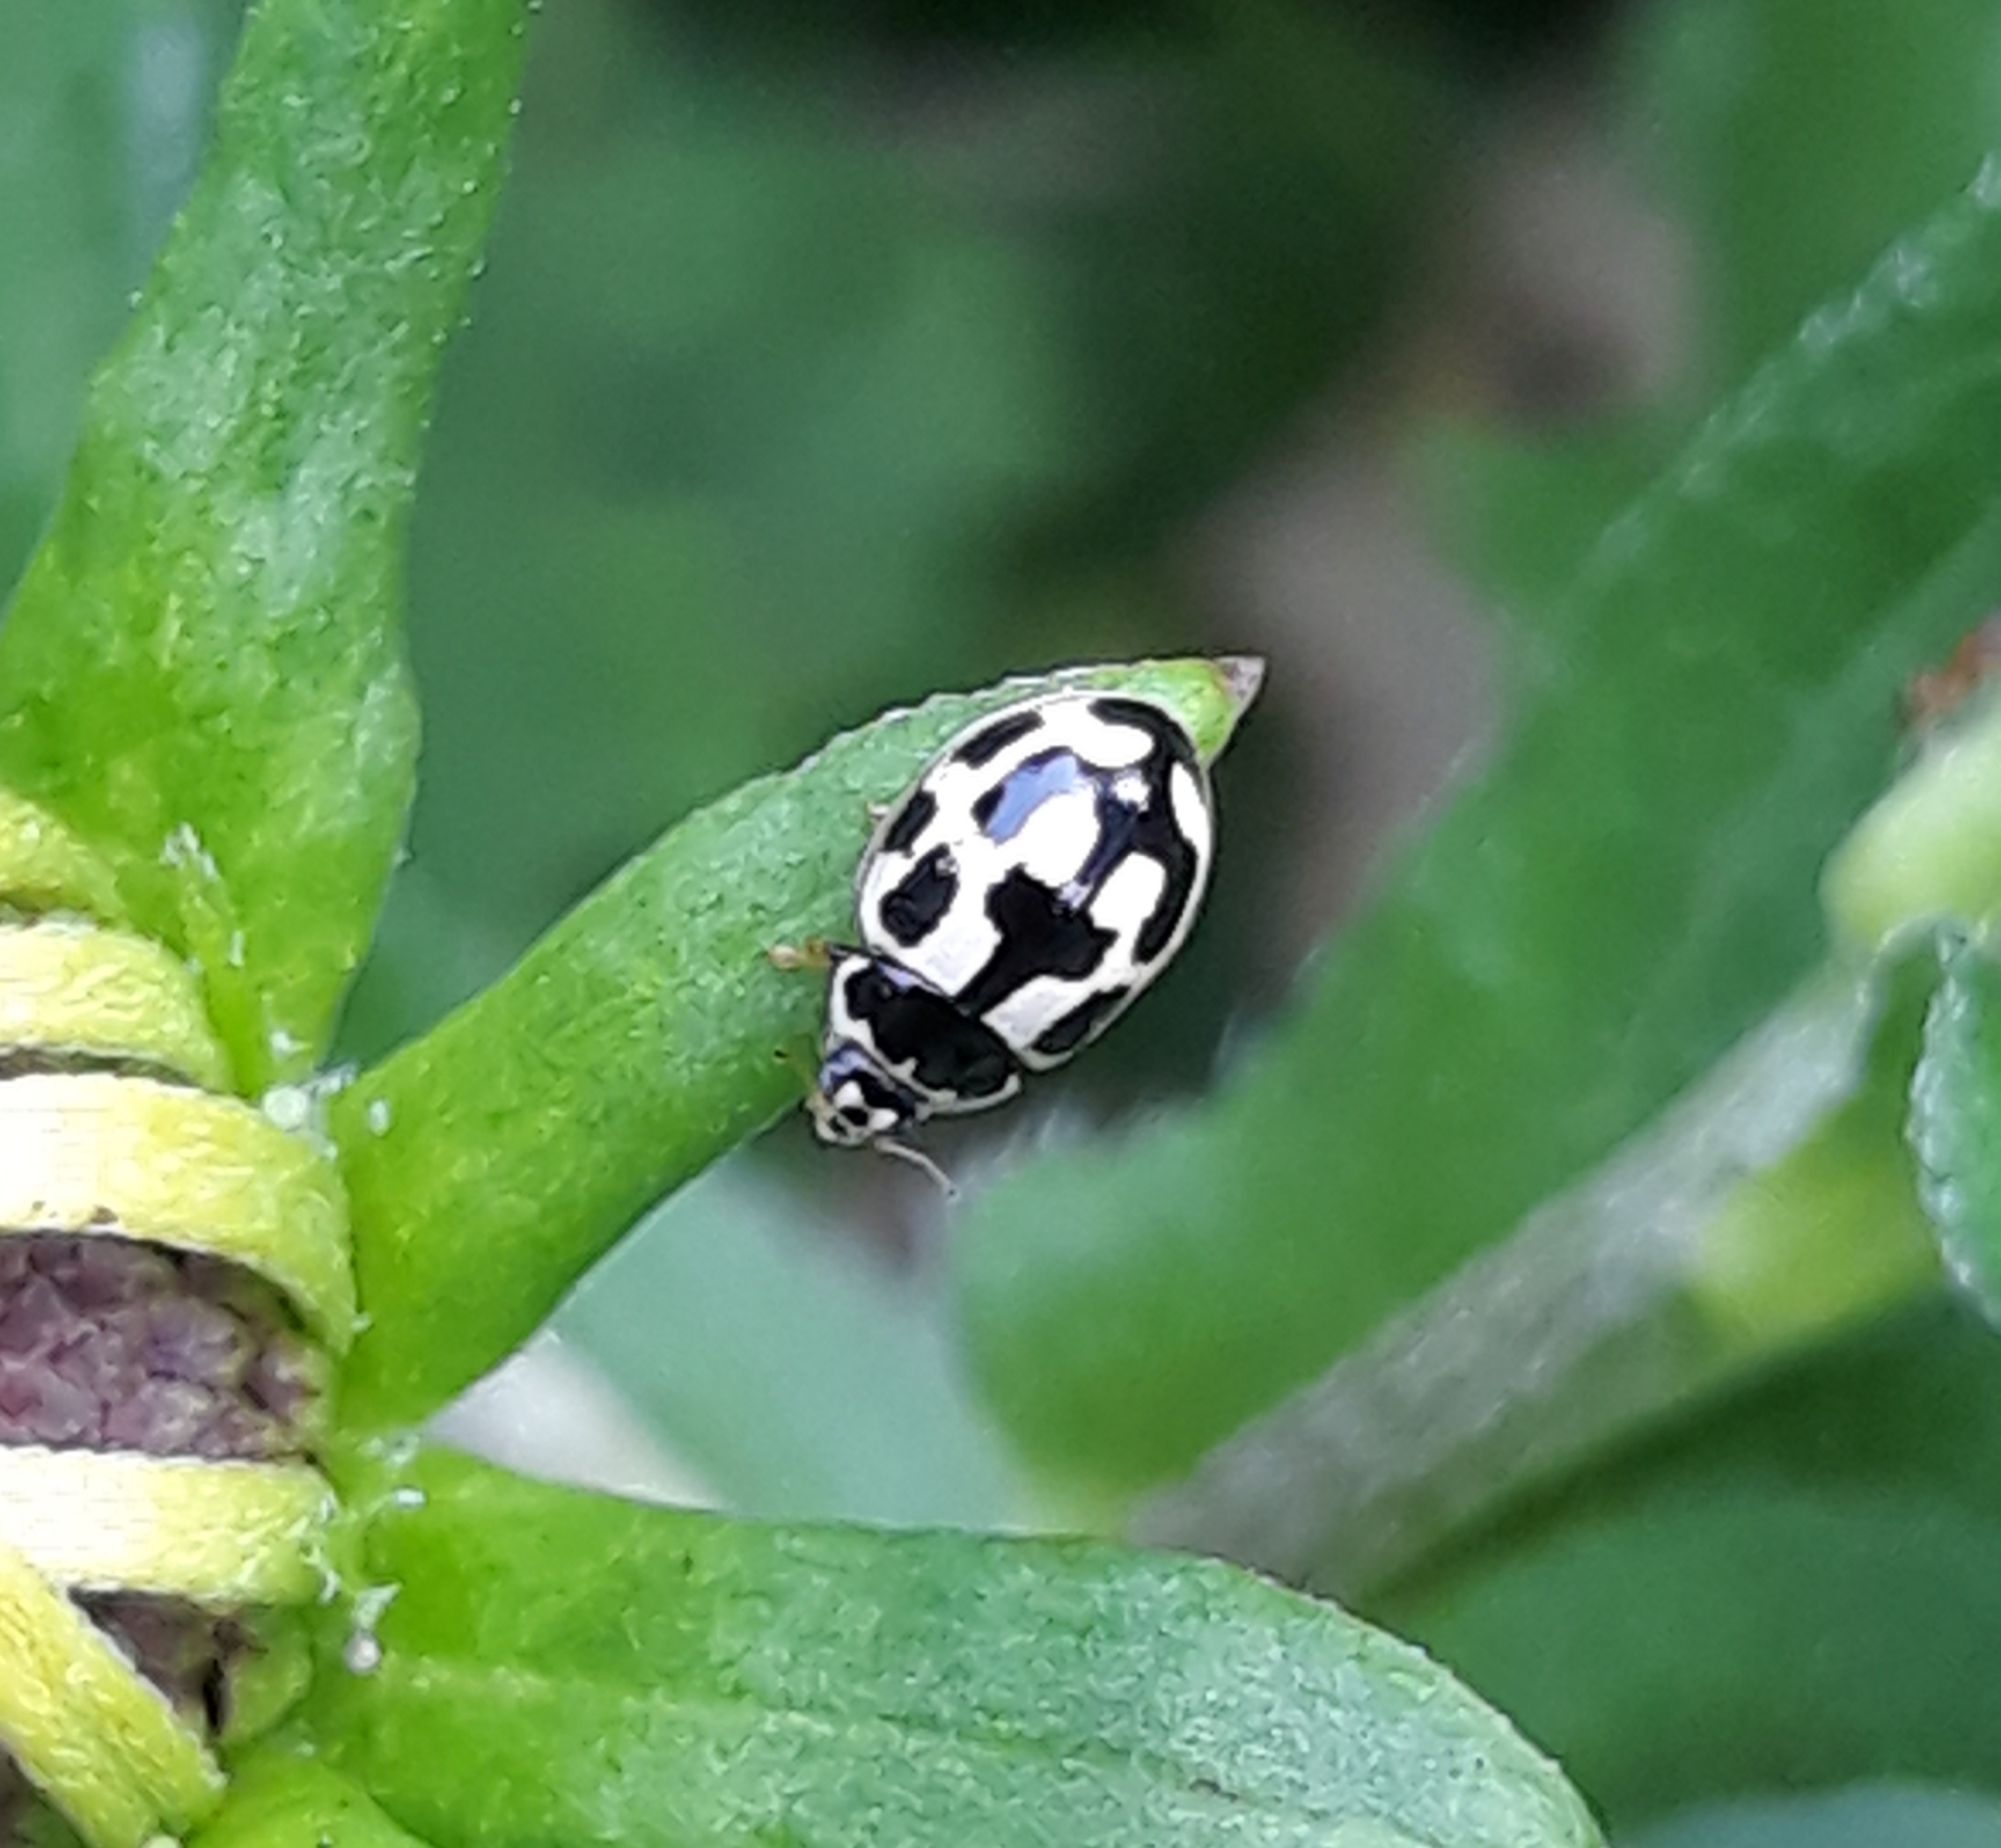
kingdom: Animalia
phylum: Arthropoda
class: Insecta
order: Coleoptera
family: Coccinellidae
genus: Propylaea
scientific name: Propylaea quatuordecimpunctata
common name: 14-spotted ladybird beetle
